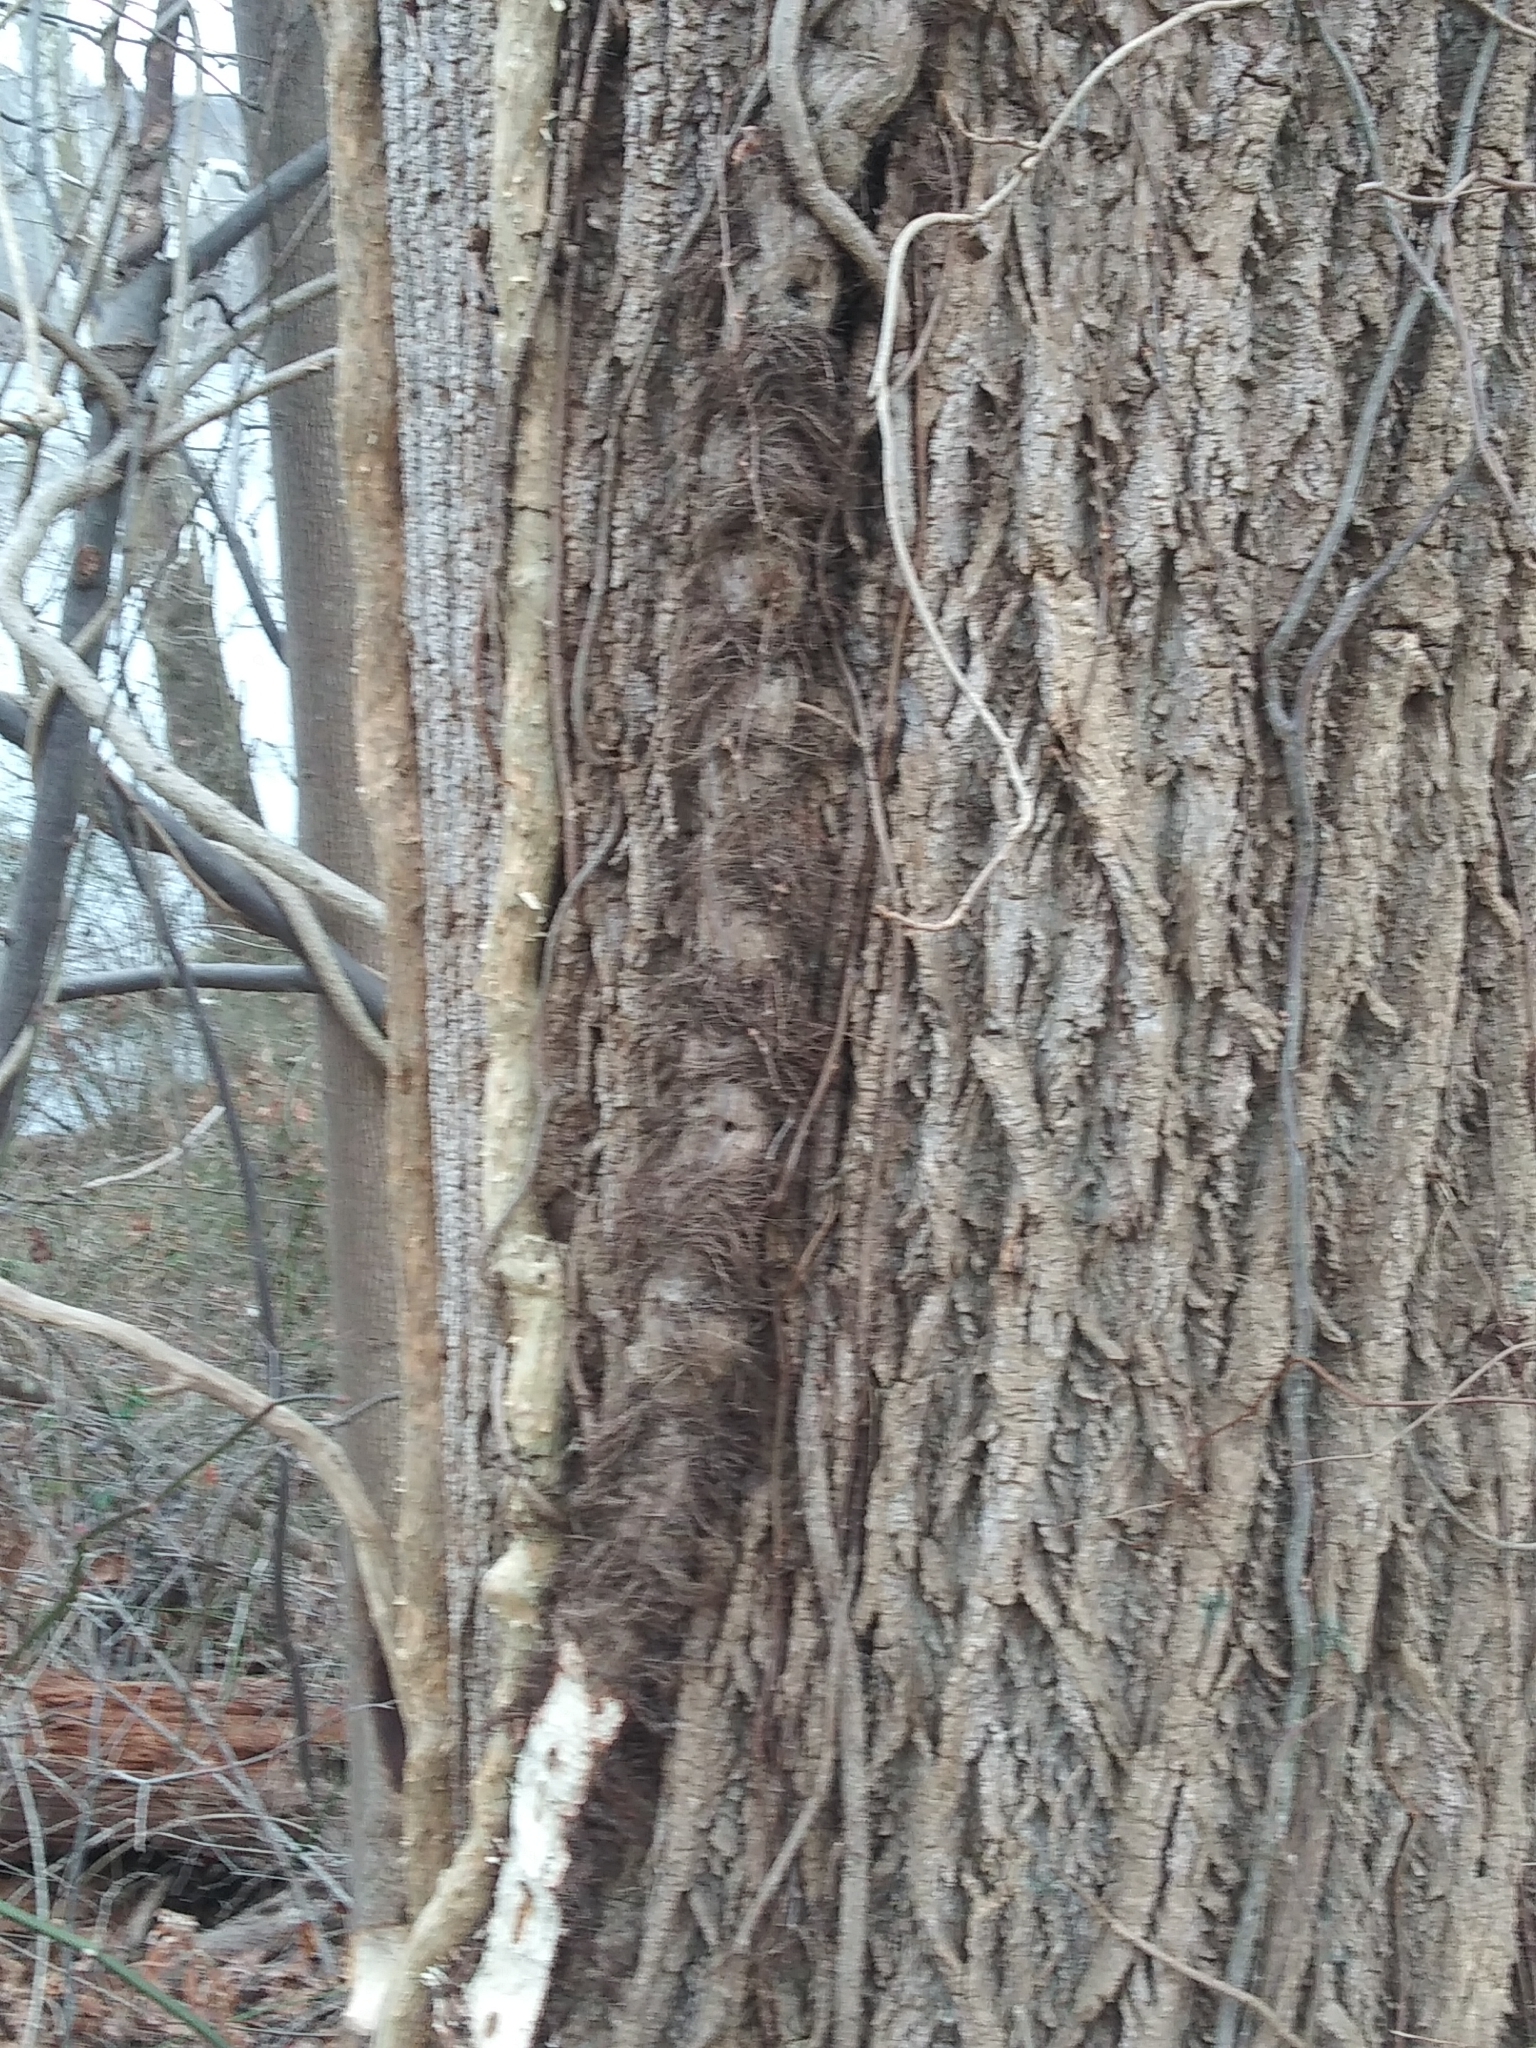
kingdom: Plantae
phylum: Tracheophyta
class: Magnoliopsida
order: Sapindales
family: Anacardiaceae
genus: Toxicodendron
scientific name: Toxicodendron radicans
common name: Poison ivy
